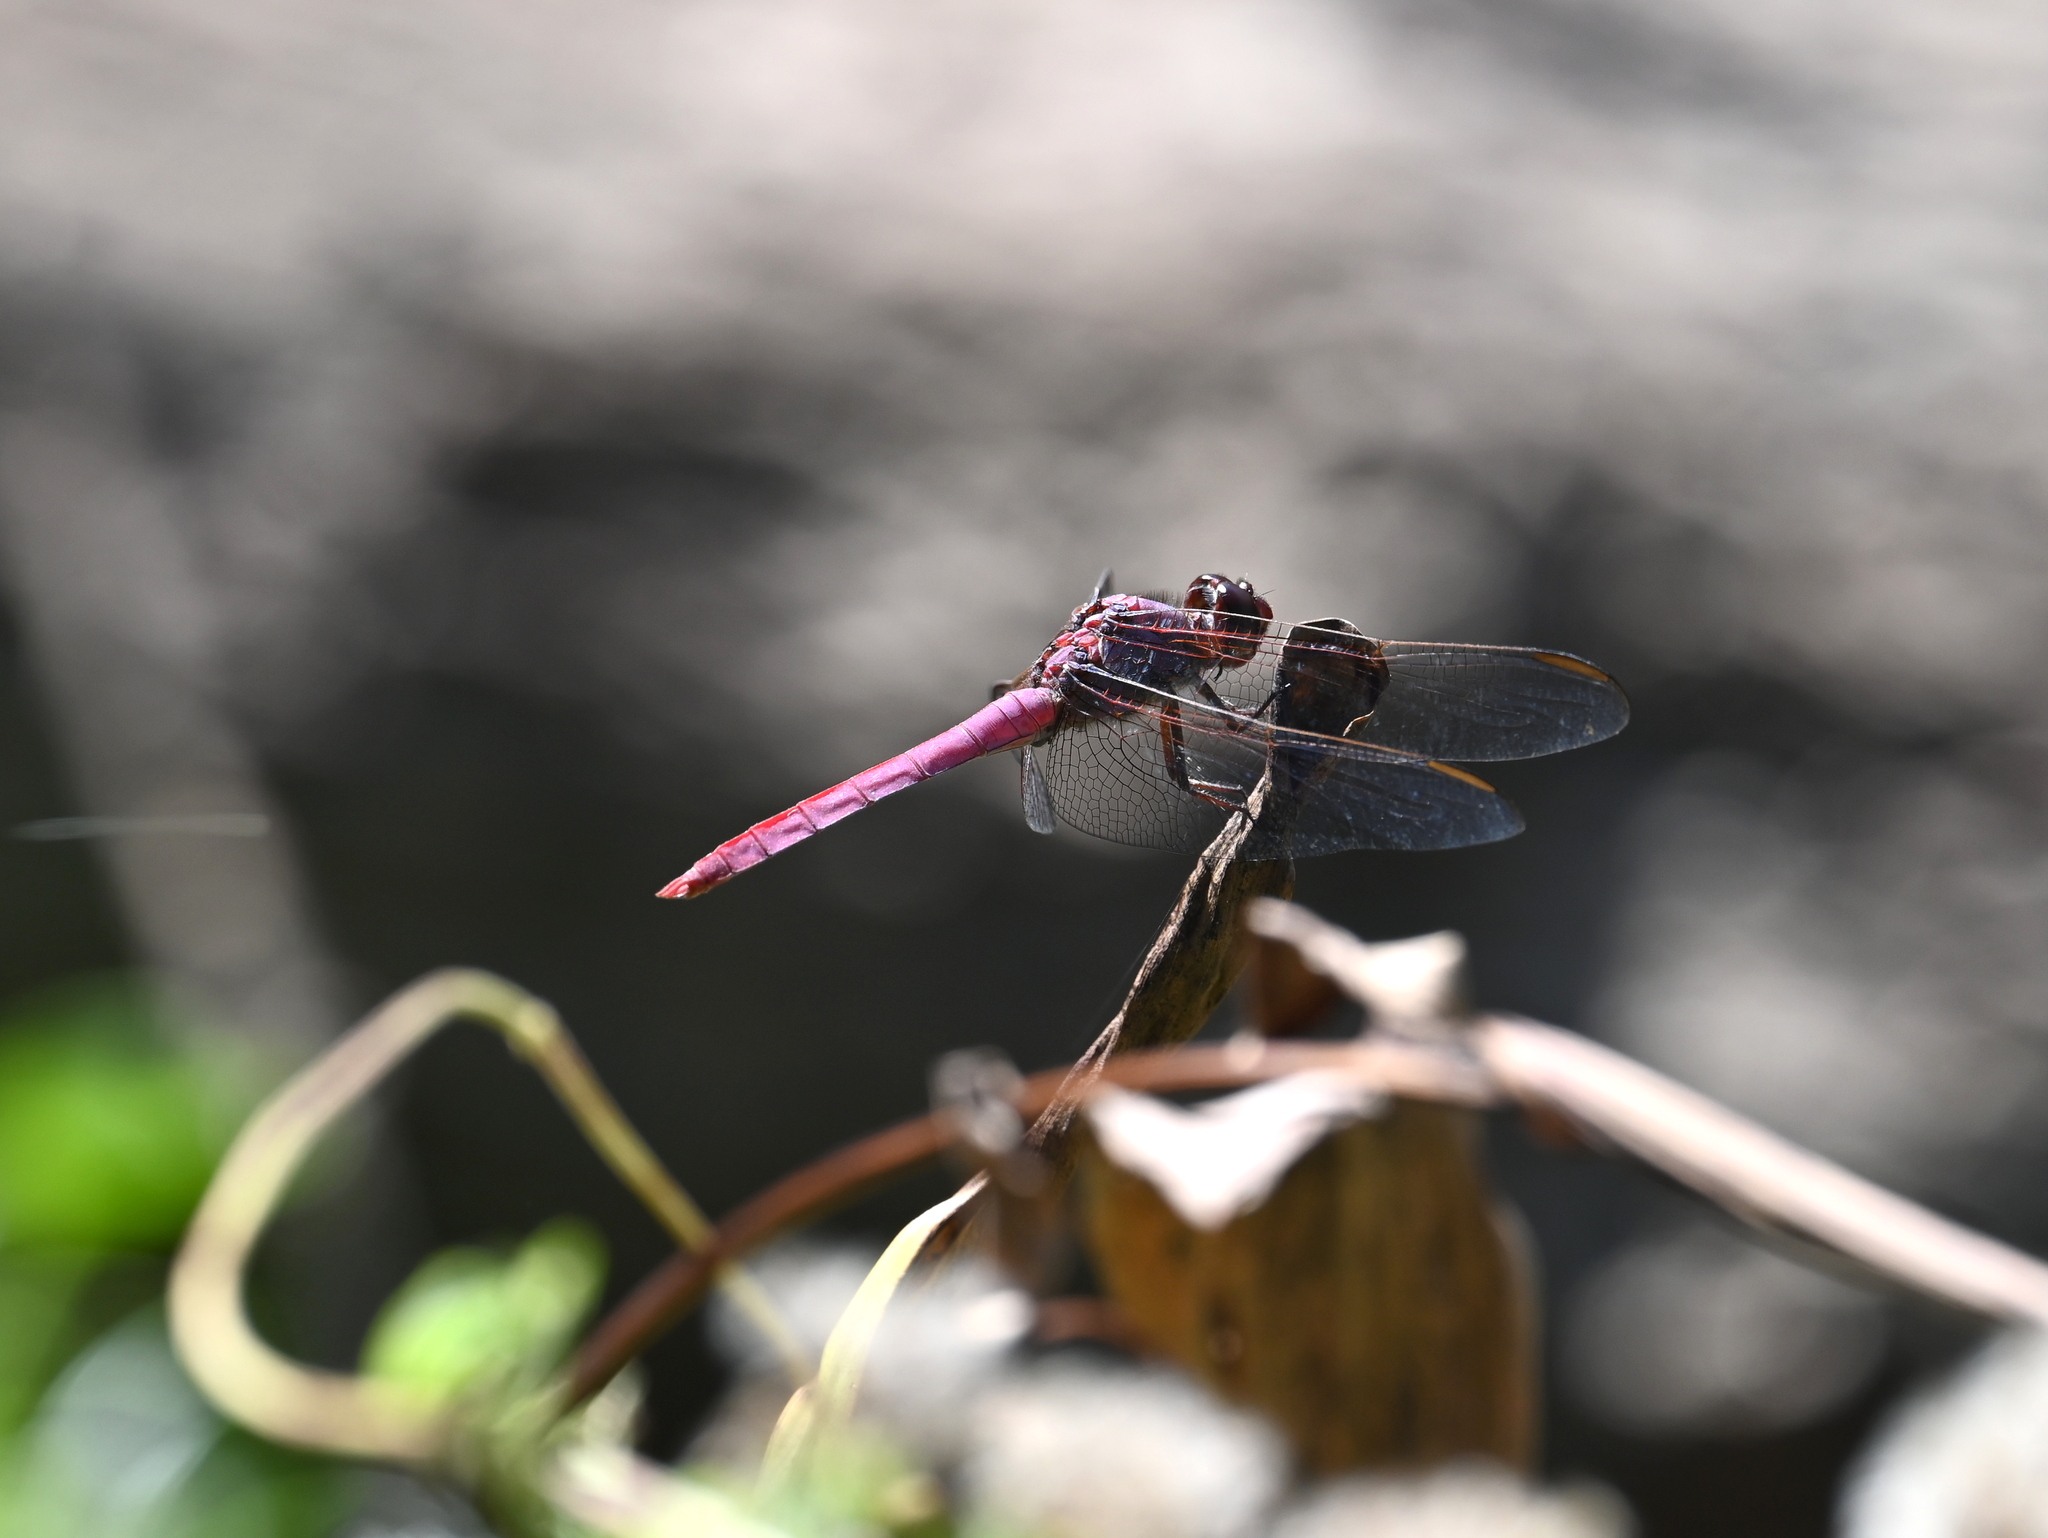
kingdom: Animalia
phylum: Arthropoda
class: Insecta
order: Odonata
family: Libellulidae
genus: Orthemis
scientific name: Orthemis ferruginea
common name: Roseate skimmer
